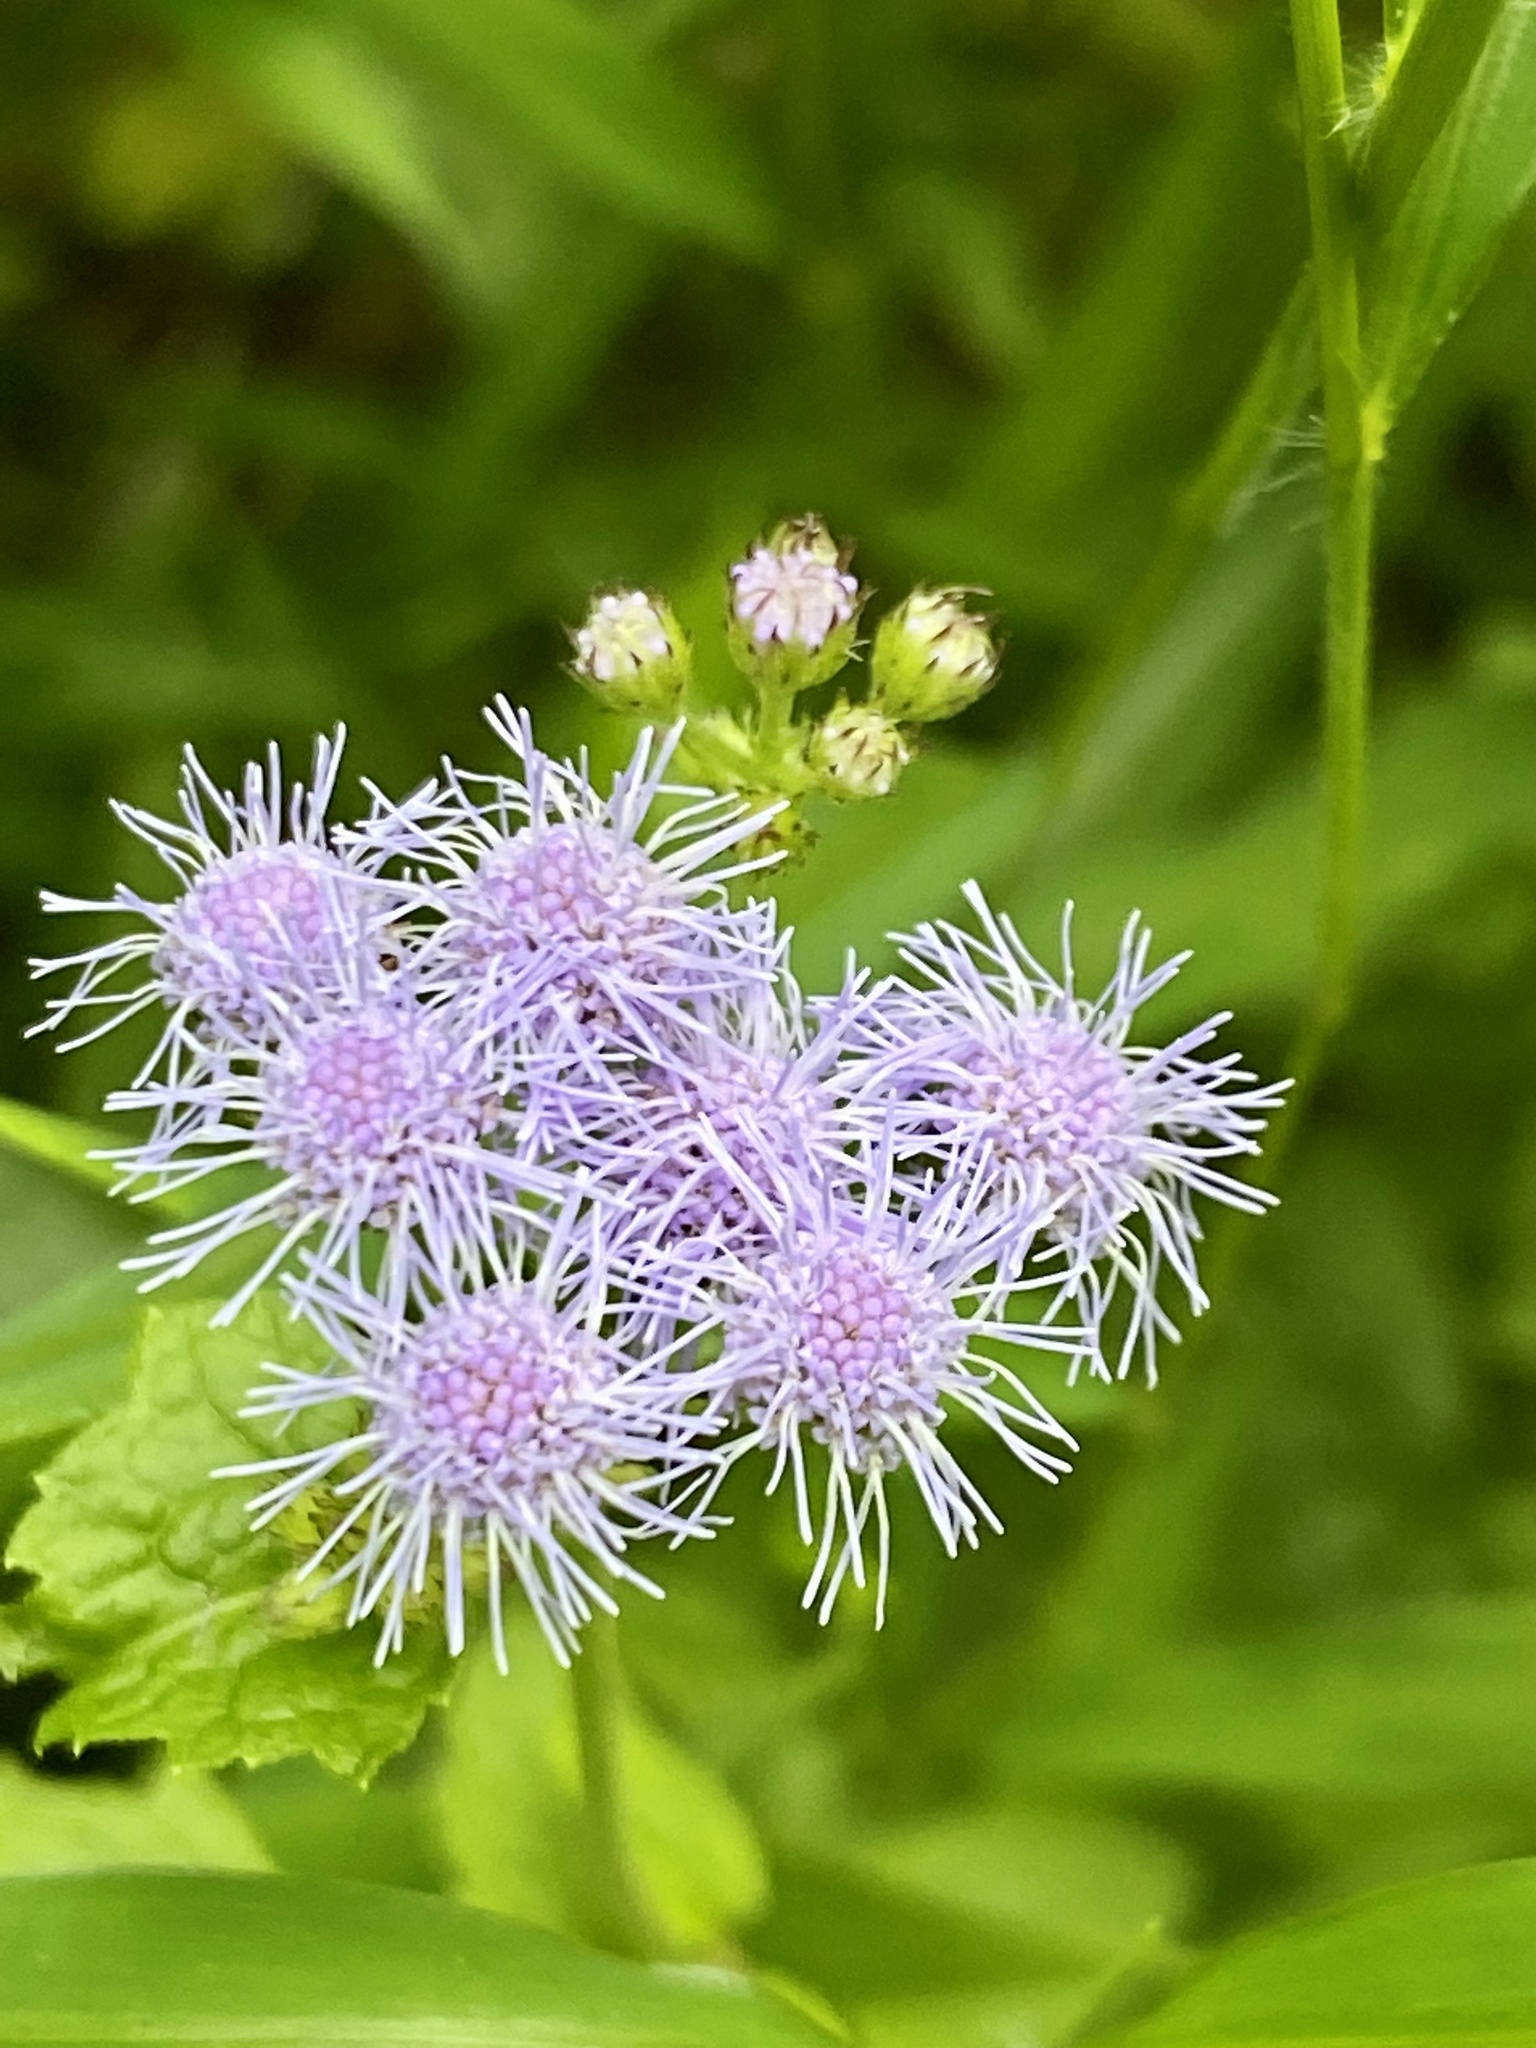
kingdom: Plantae
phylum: Tracheophyta
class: Magnoliopsida
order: Asterales
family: Asteraceae
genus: Conoclinium
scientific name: Conoclinium coelestinum
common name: Blue mistflower
